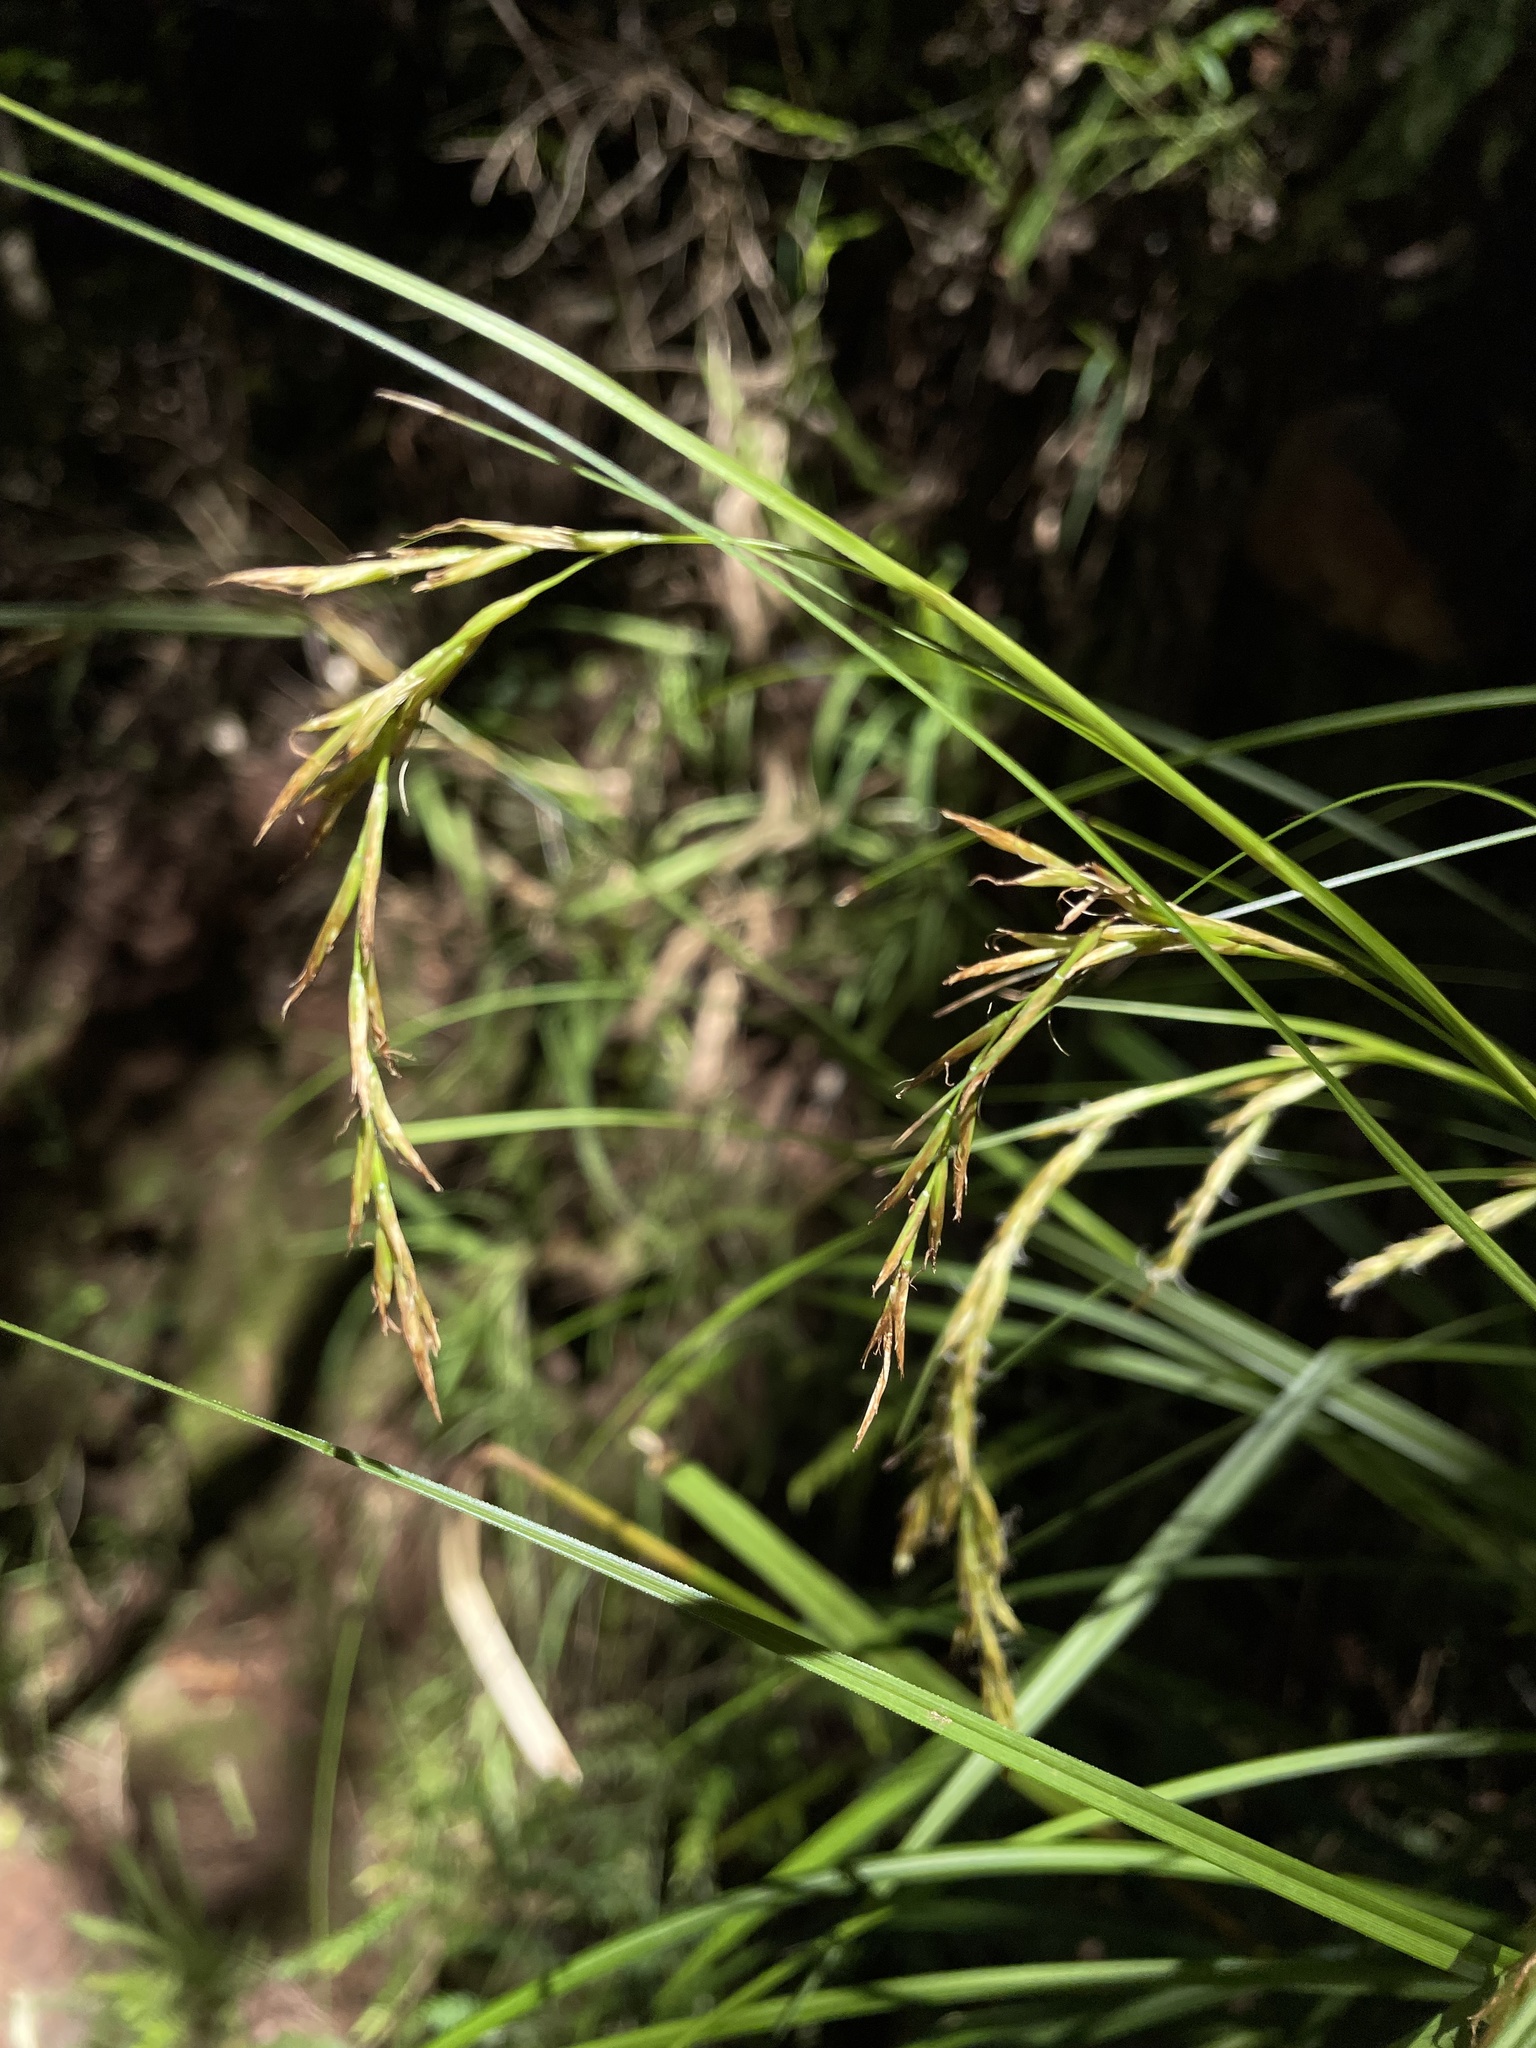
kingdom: Plantae
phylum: Tracheophyta
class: Liliopsida
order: Poales
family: Cyperaceae
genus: Carex
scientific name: Carex lancea
